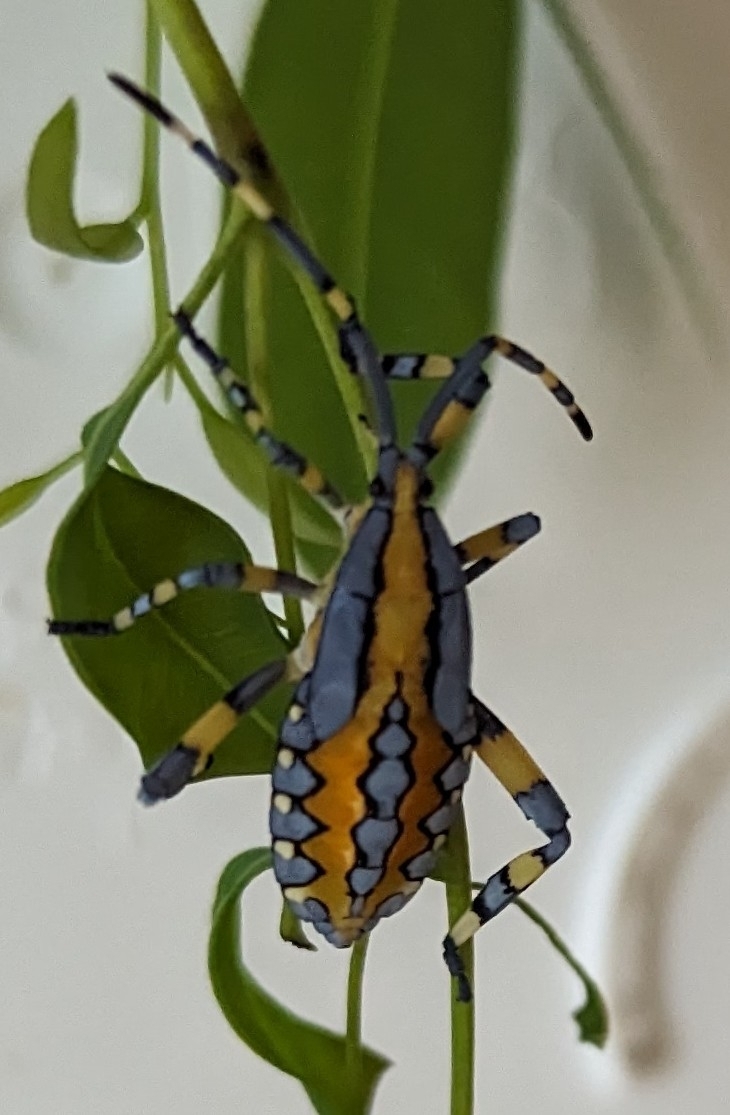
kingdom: Animalia
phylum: Arthropoda
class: Insecta
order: Hemiptera
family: Coreidae
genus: Amorbus
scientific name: Amorbus atomarius
